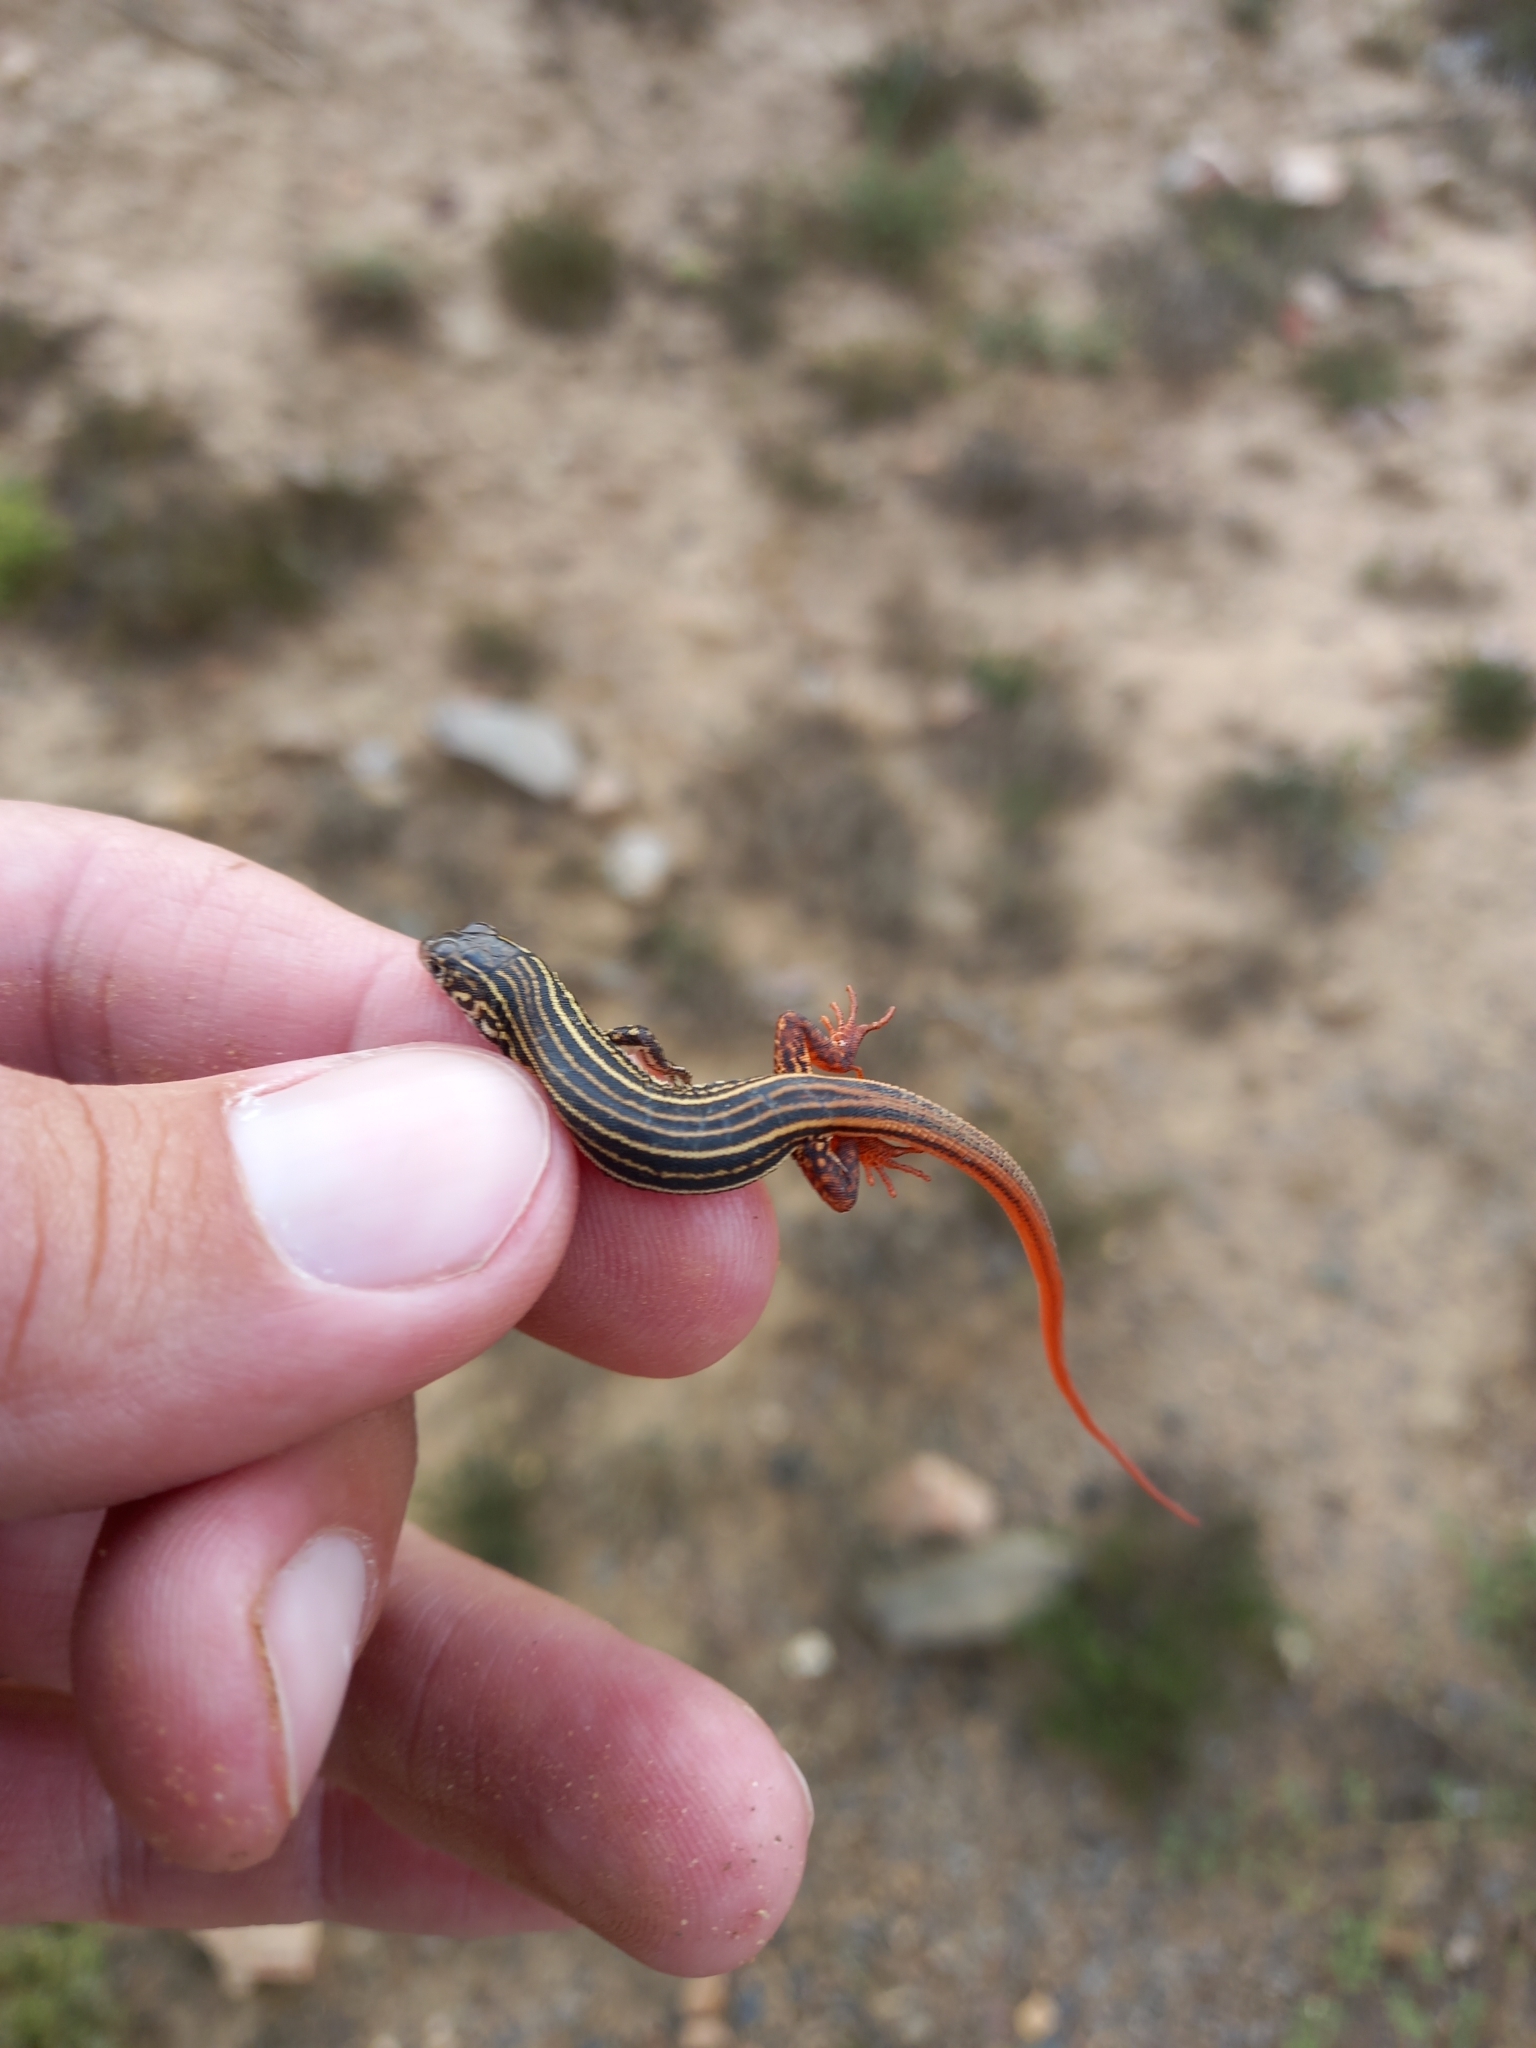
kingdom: Animalia
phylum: Chordata
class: Squamata
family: Lacertidae
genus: Nucras
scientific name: Nucras taeniolata
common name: Albany sandveld lizard
